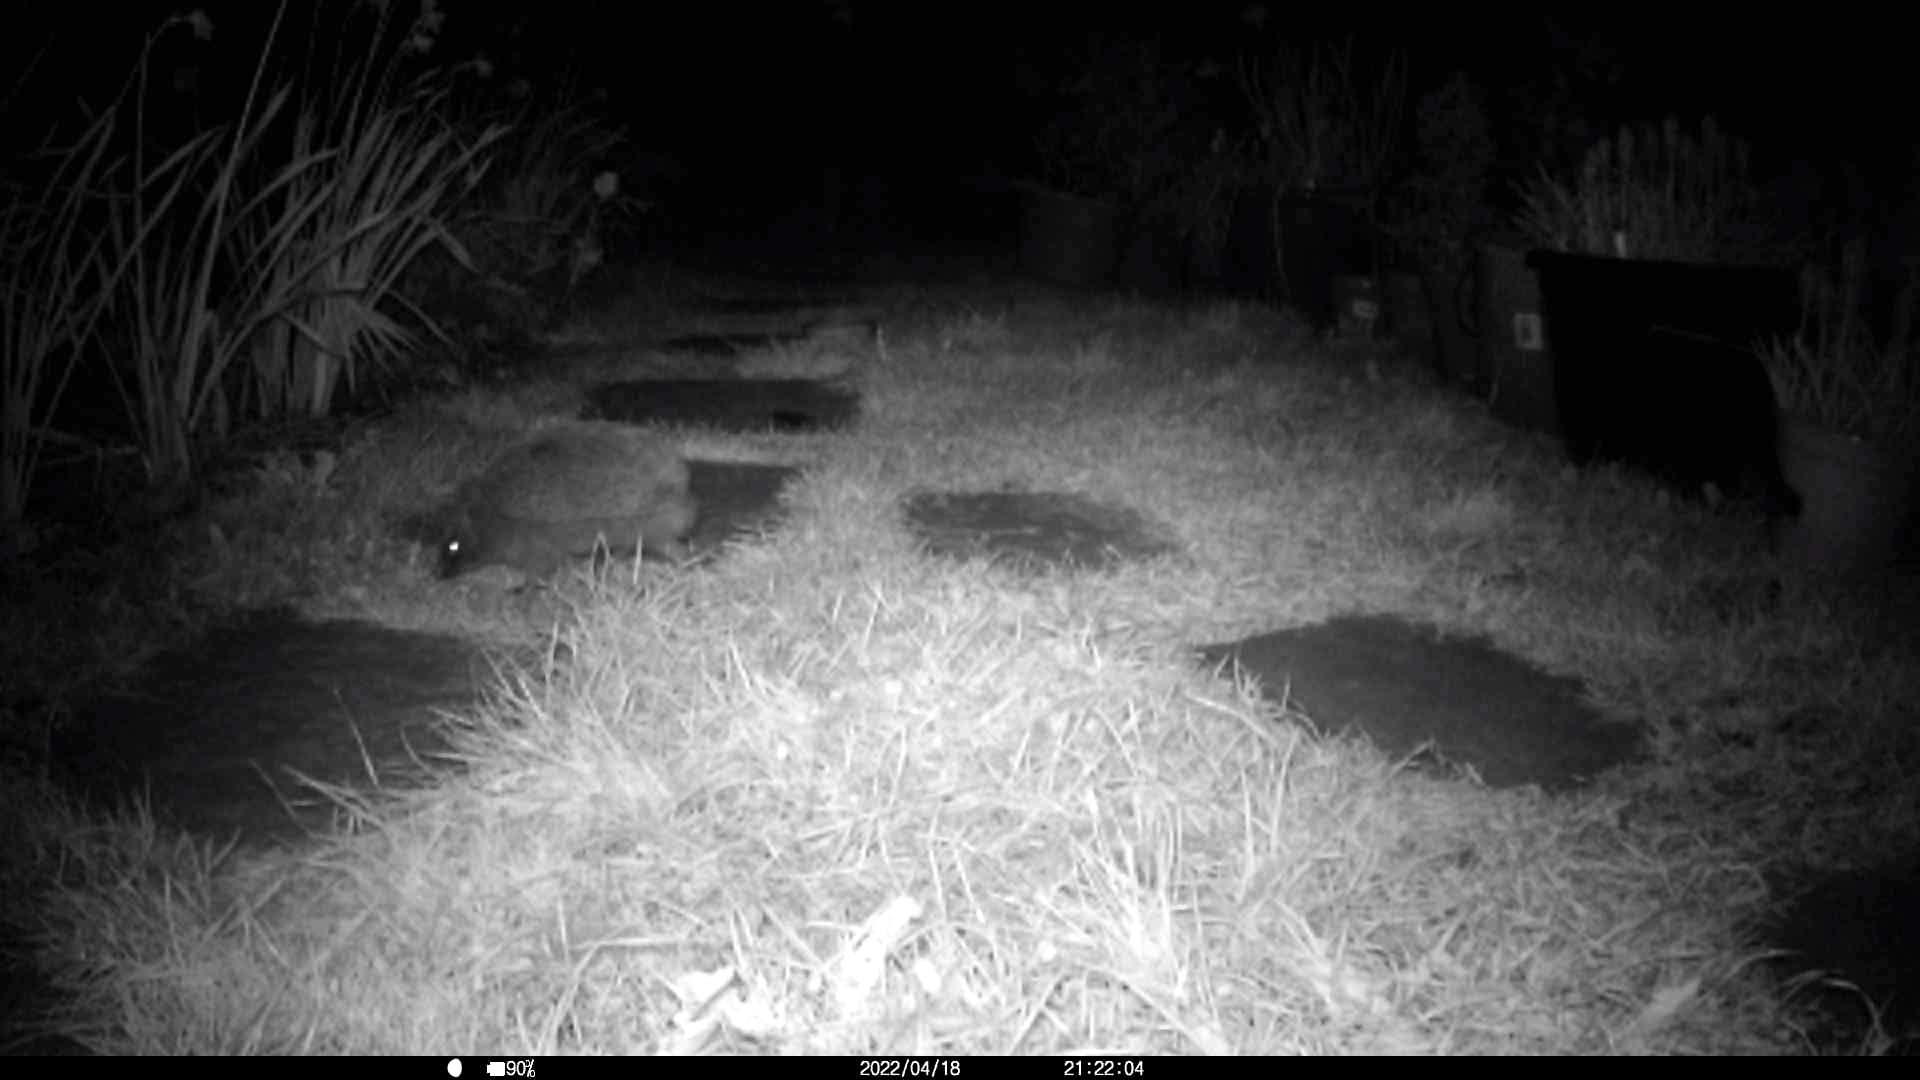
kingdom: Animalia
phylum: Chordata
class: Mammalia
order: Erinaceomorpha
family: Erinaceidae
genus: Erinaceus
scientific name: Erinaceus europaeus
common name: West european hedgehog
